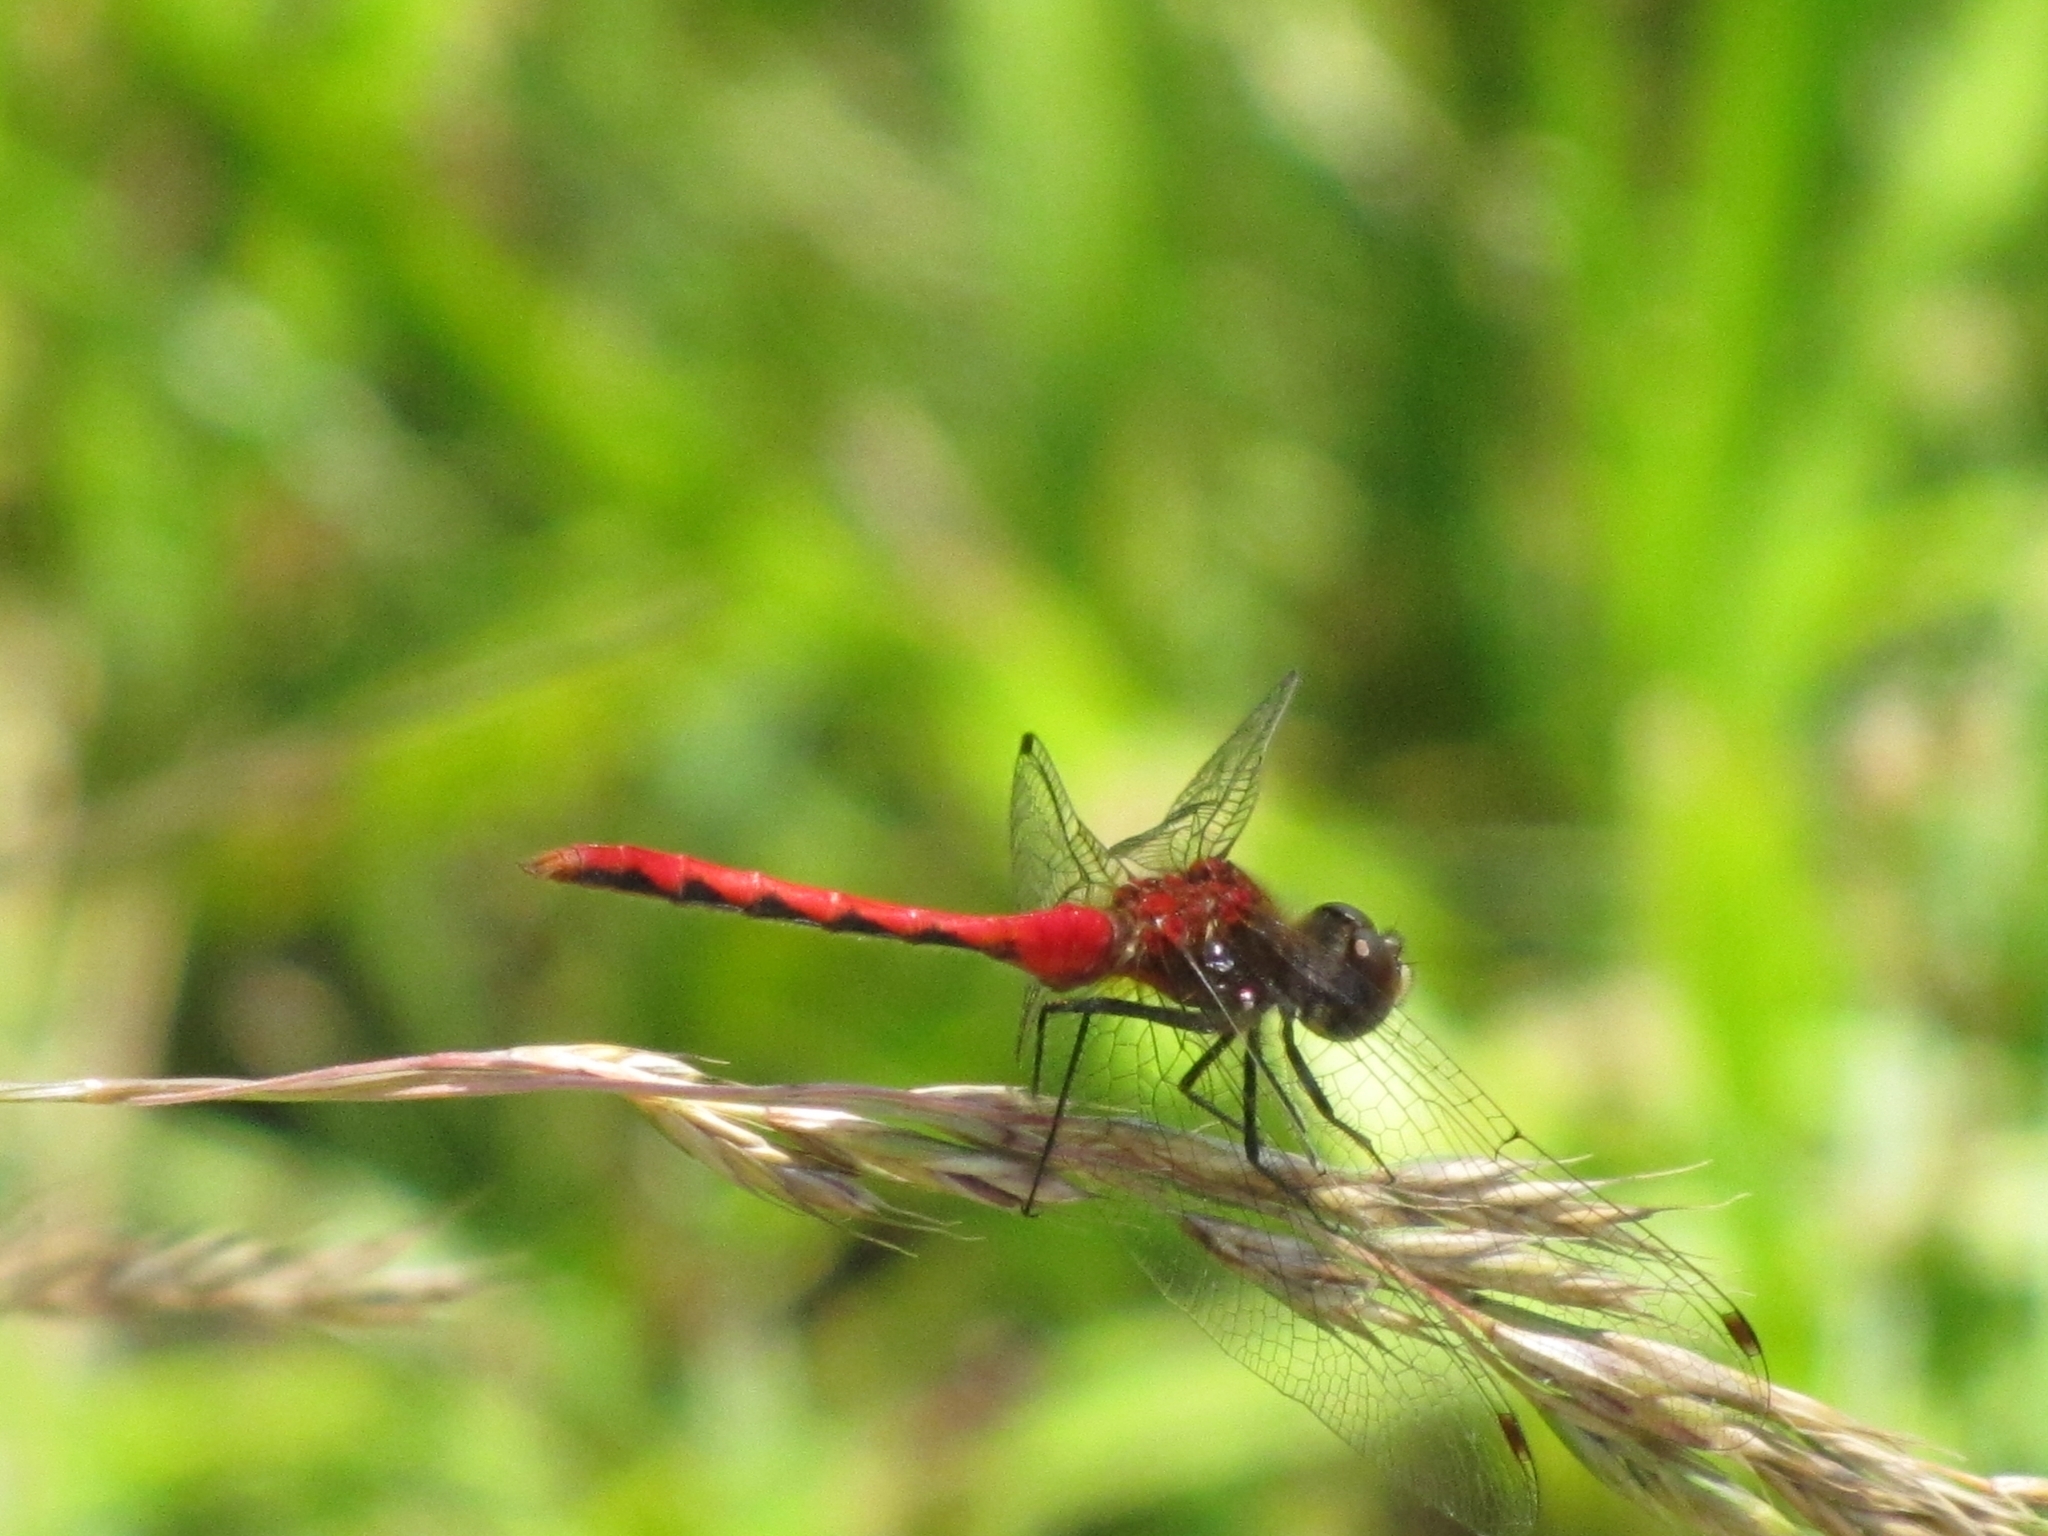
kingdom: Animalia
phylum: Arthropoda
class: Insecta
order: Odonata
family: Libellulidae
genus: Sympetrum
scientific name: Sympetrum obtrusum
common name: White-faced meadowhawk
